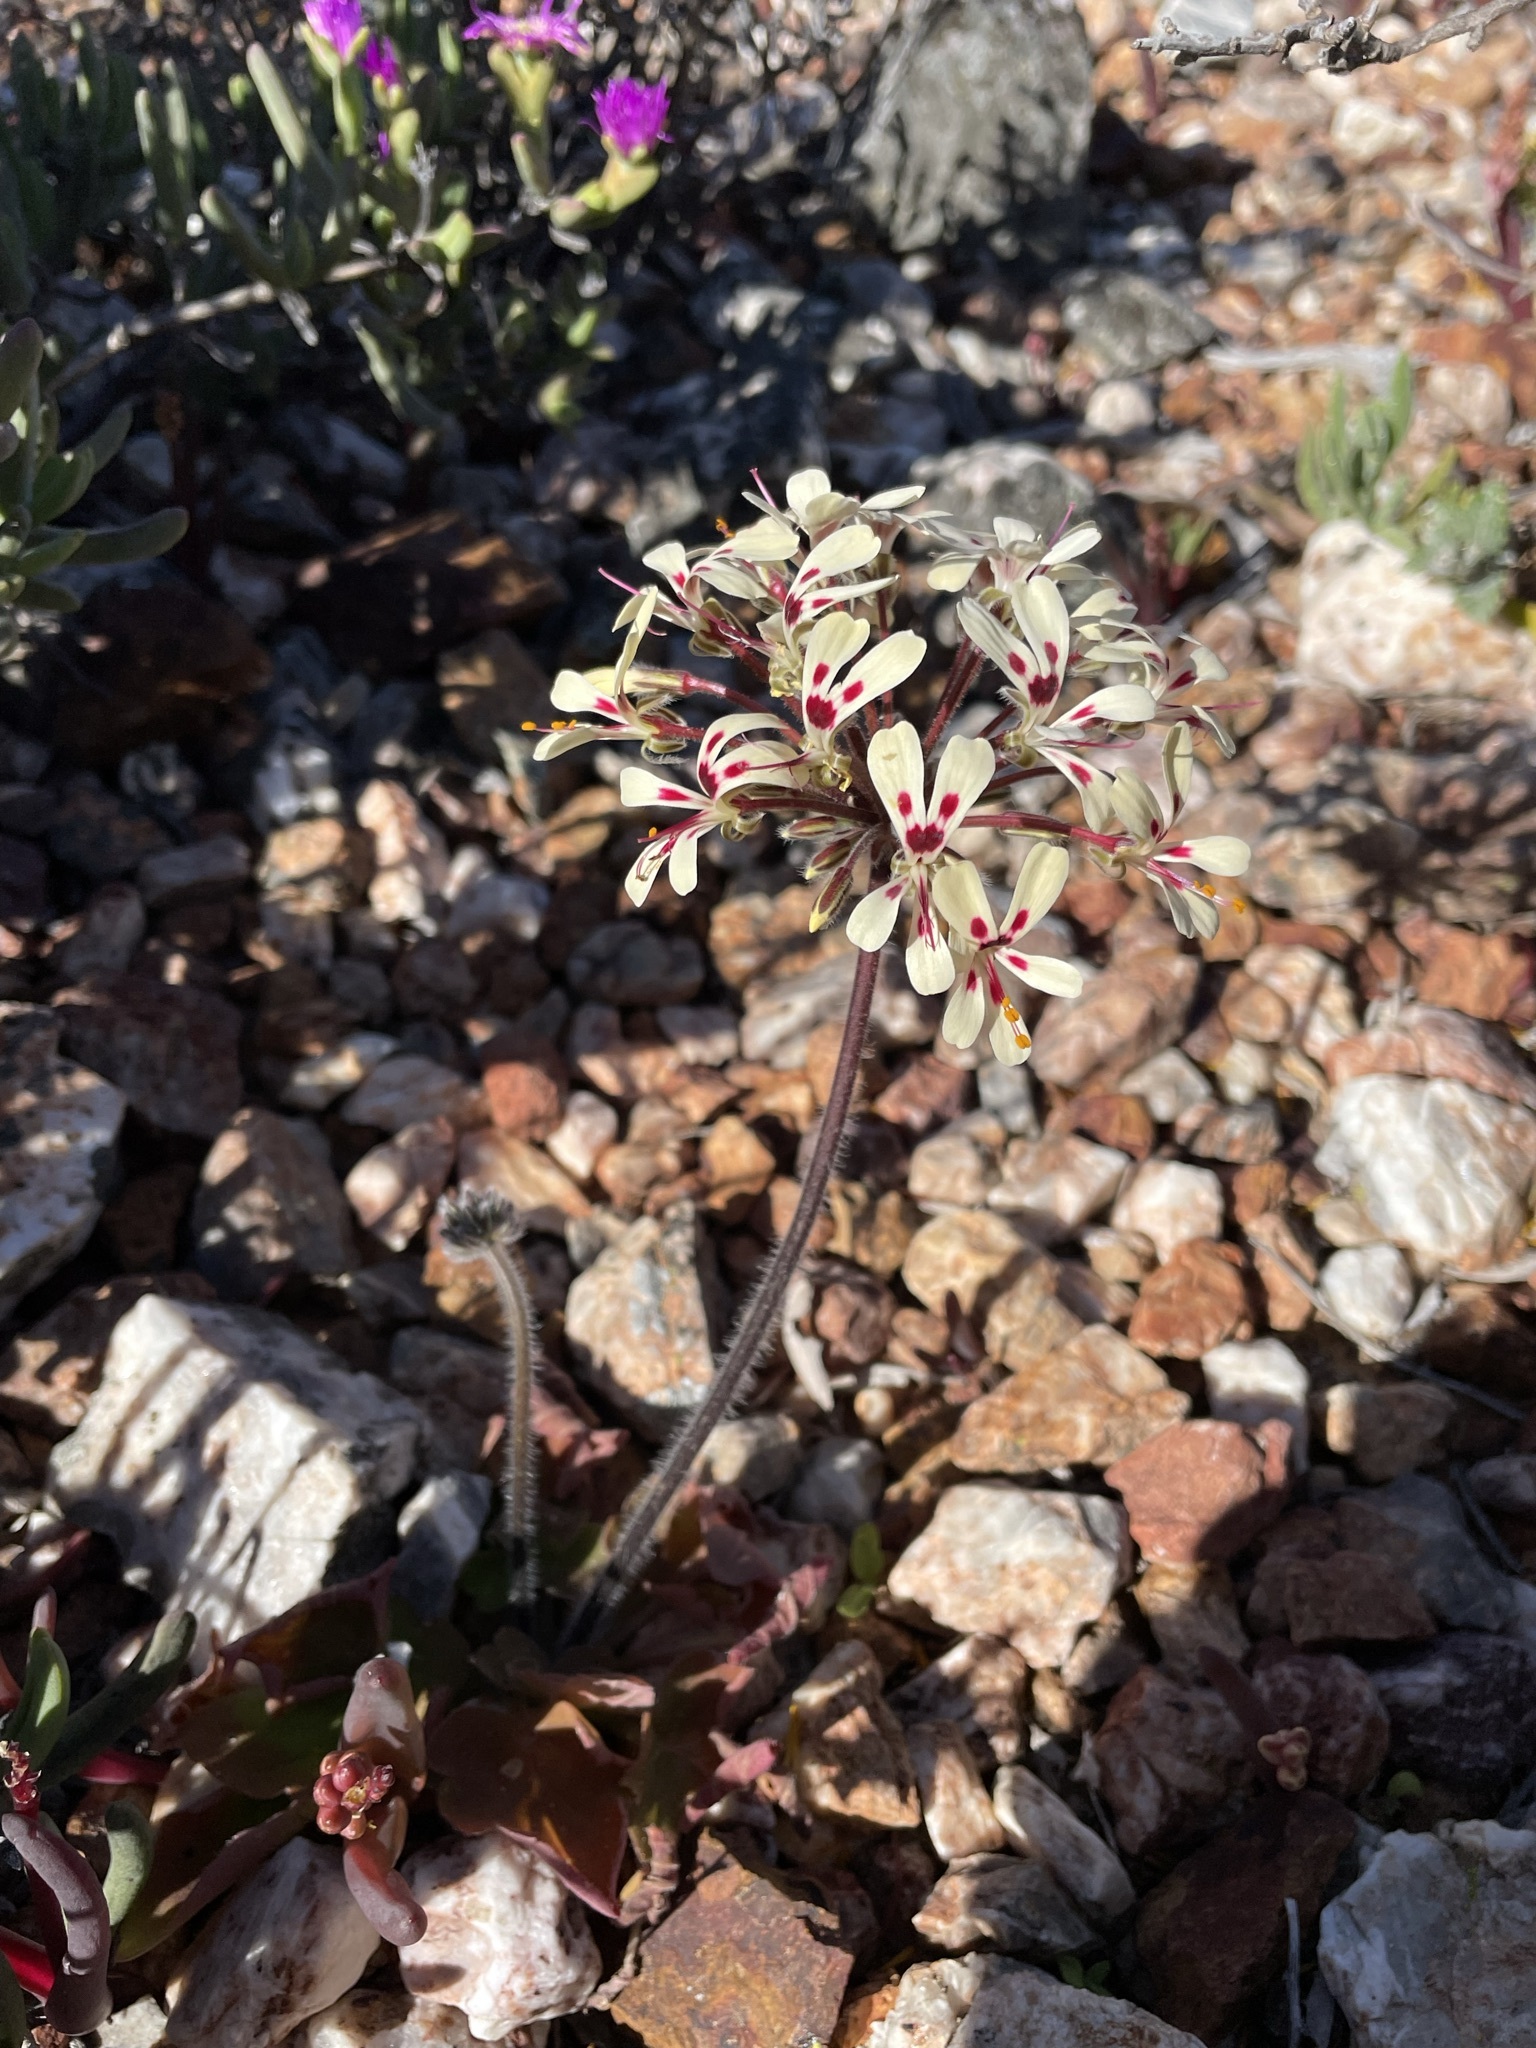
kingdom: Plantae
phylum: Tracheophyta
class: Magnoliopsida
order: Geraniales
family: Geraniaceae
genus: Pelargonium
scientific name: Pelargonium moniliforme
